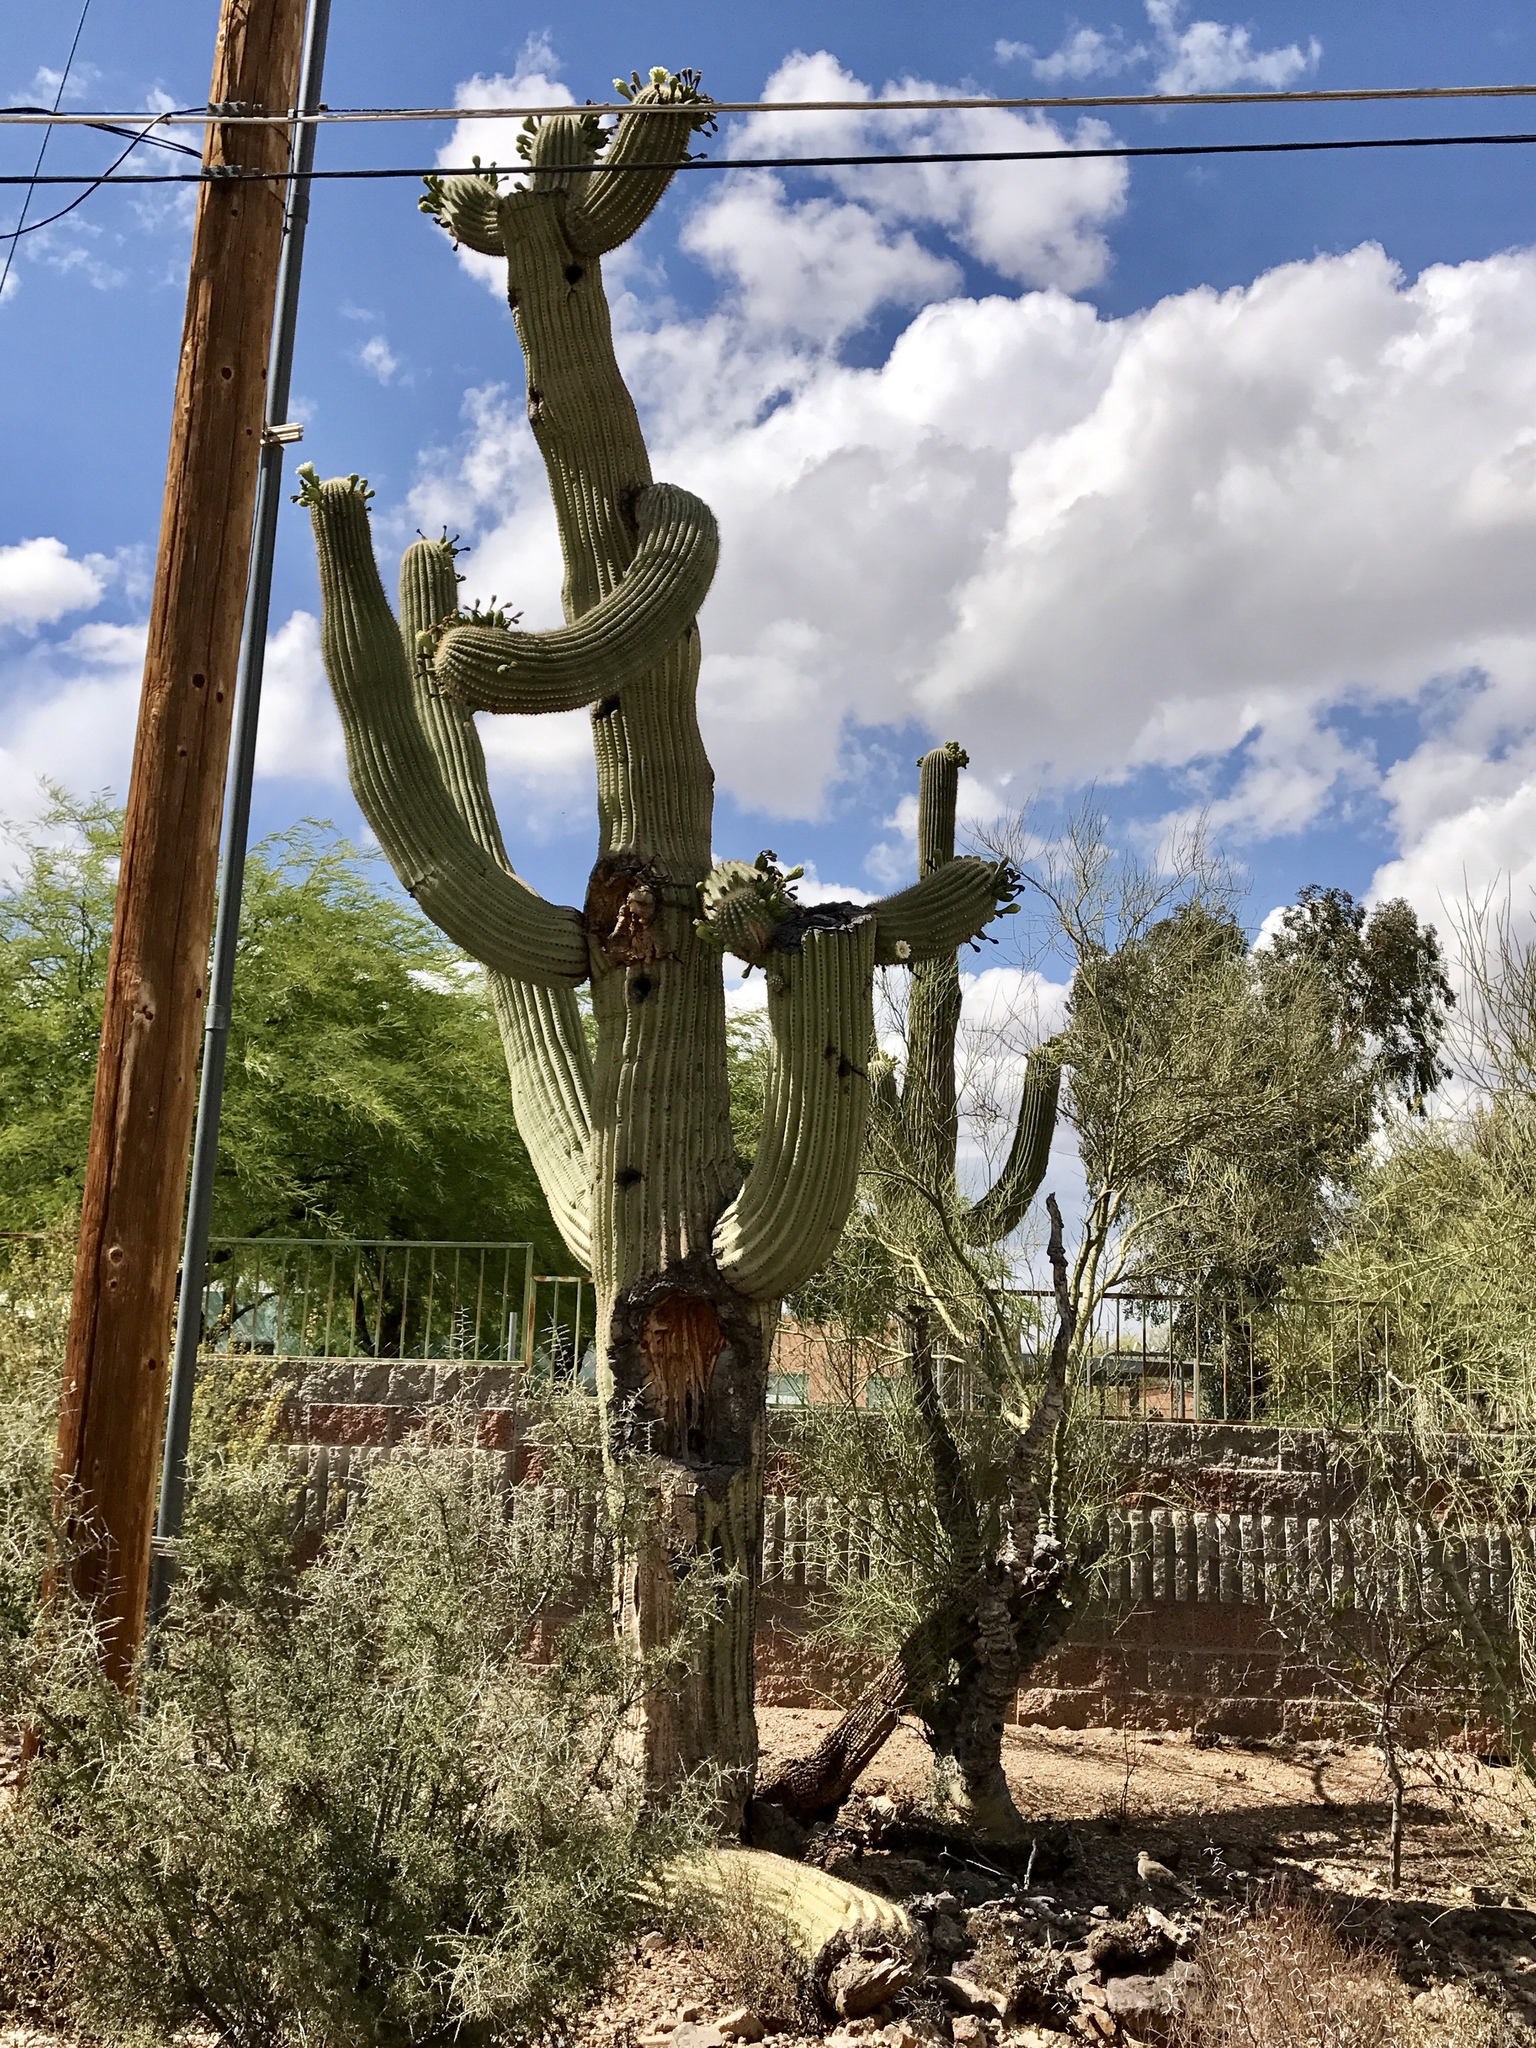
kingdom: Plantae
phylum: Tracheophyta
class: Magnoliopsida
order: Caryophyllales
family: Cactaceae
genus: Carnegiea
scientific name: Carnegiea gigantea
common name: Saguaro
